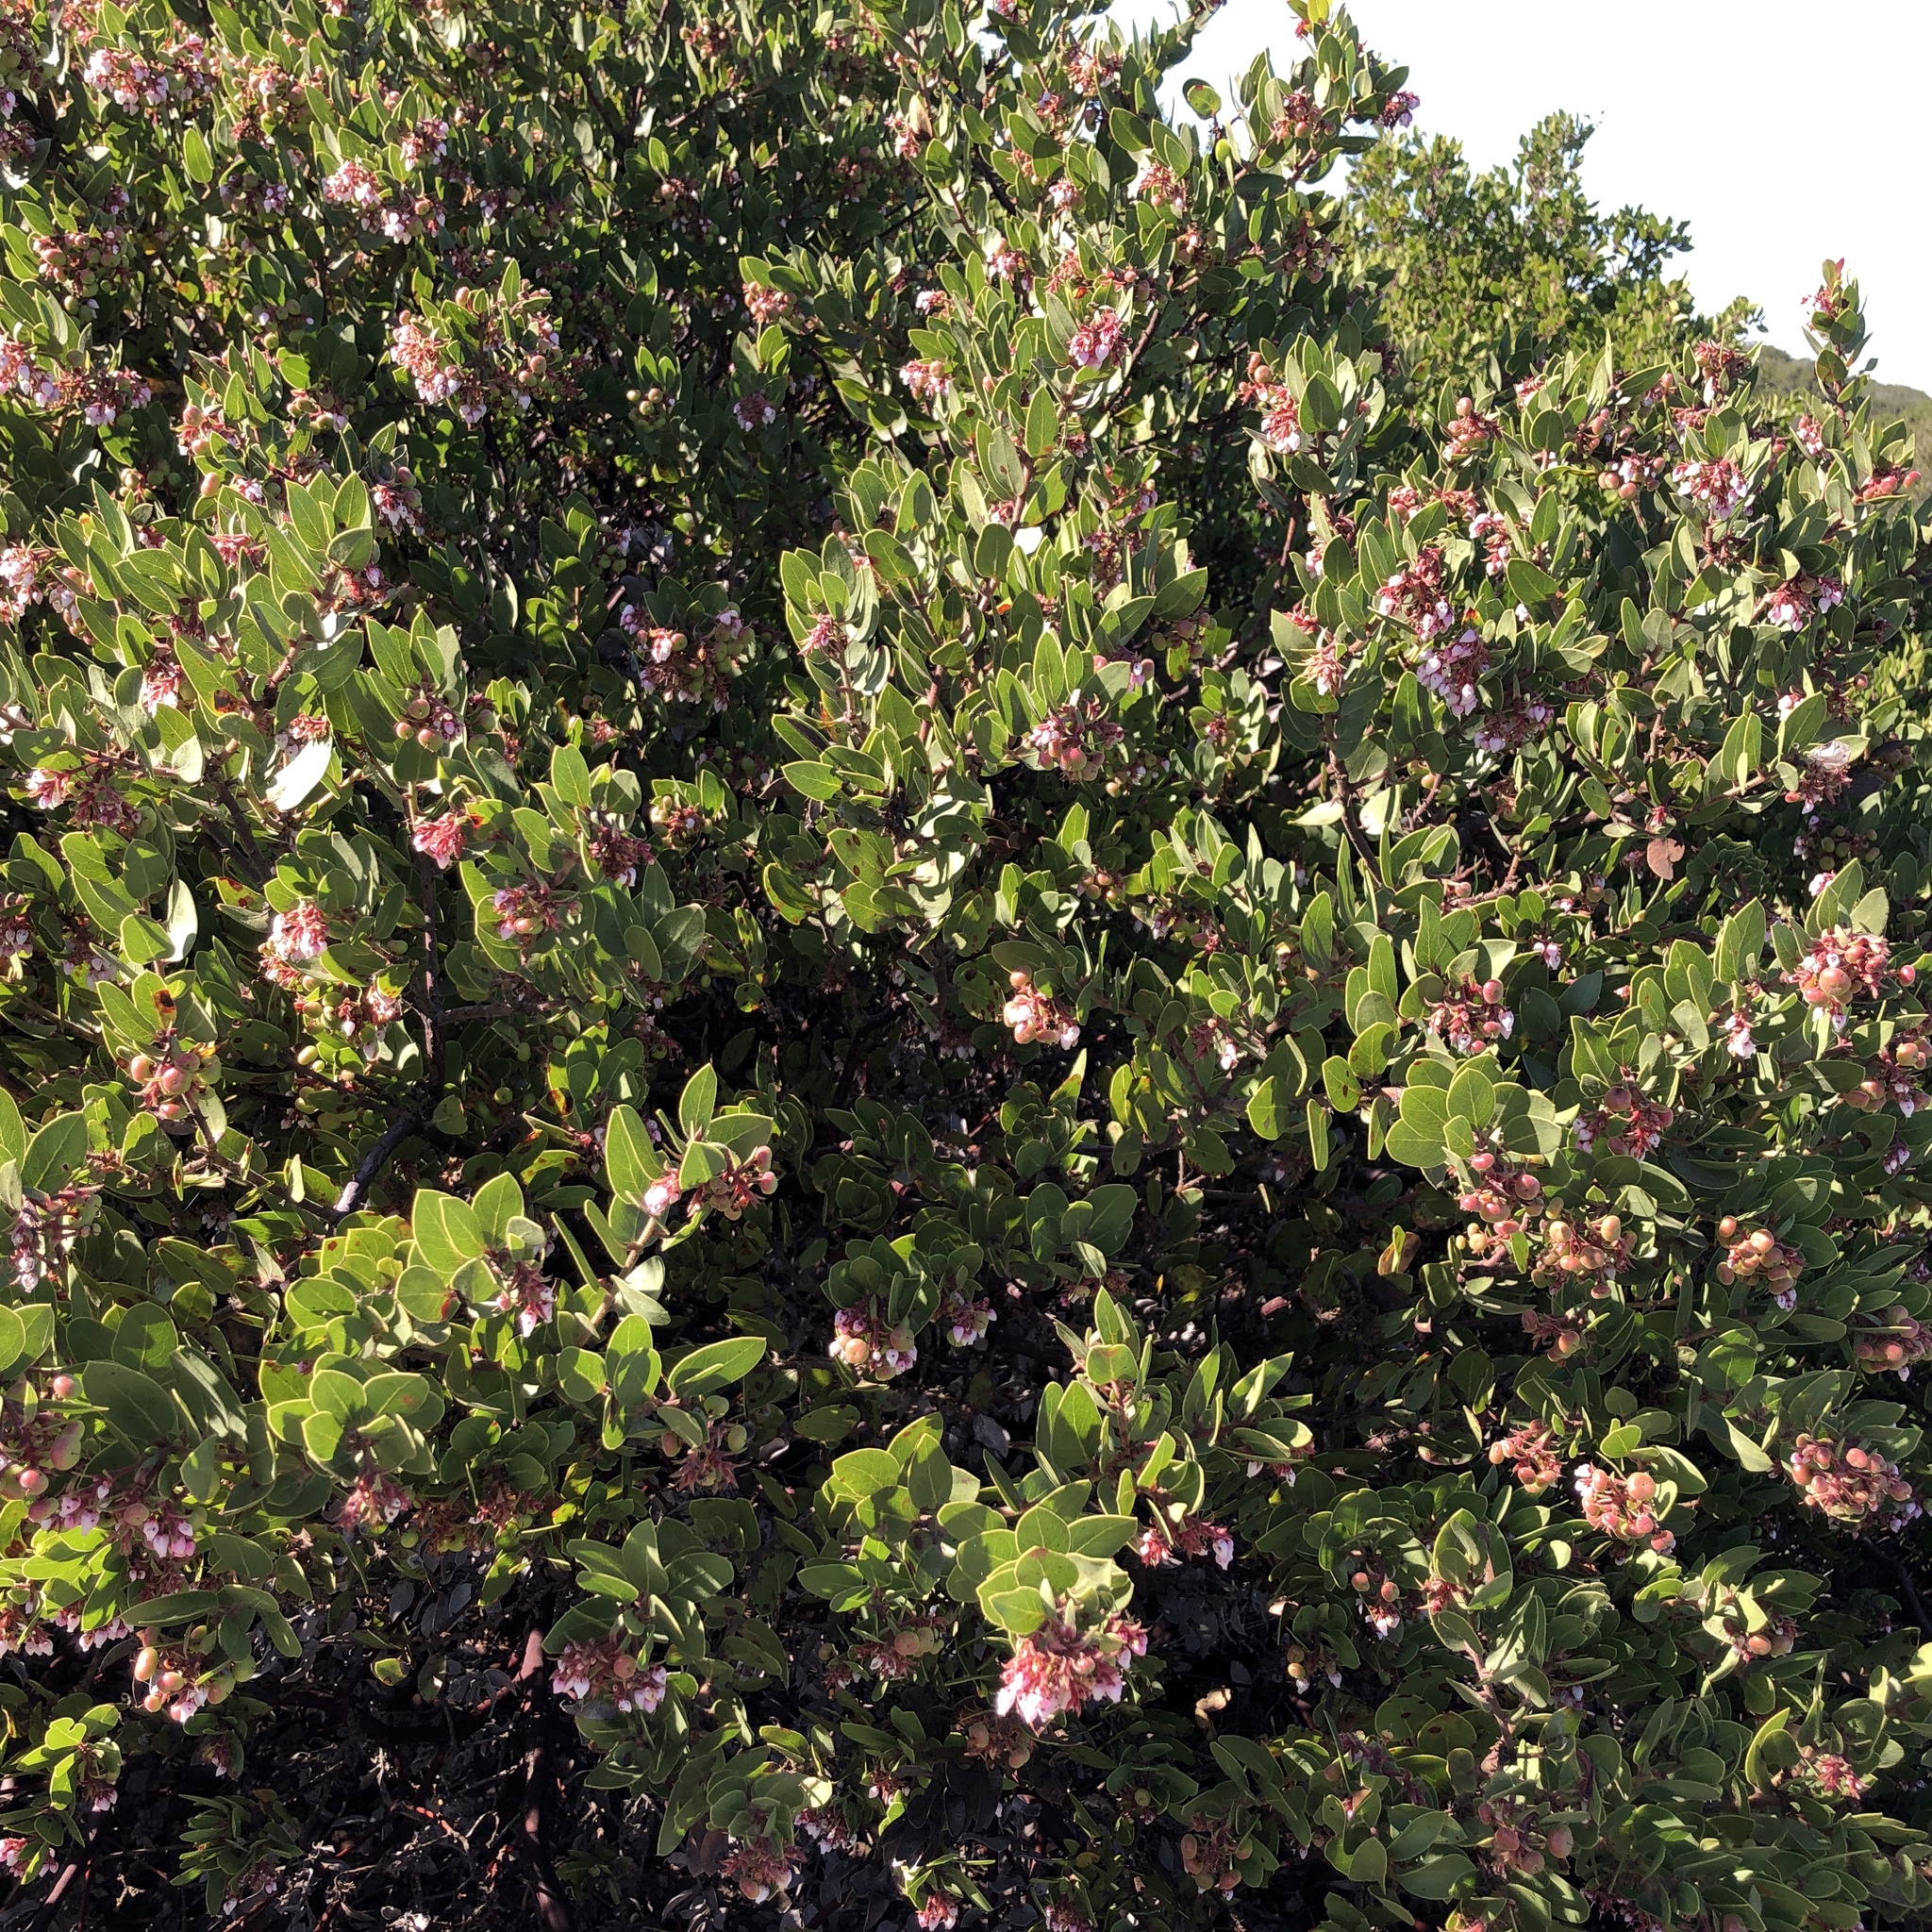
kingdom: Plantae
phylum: Tracheophyta
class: Magnoliopsida
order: Ericales
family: Ericaceae
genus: Arctostaphylos
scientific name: Arctostaphylos montereyensis
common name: Monterey manzanita
